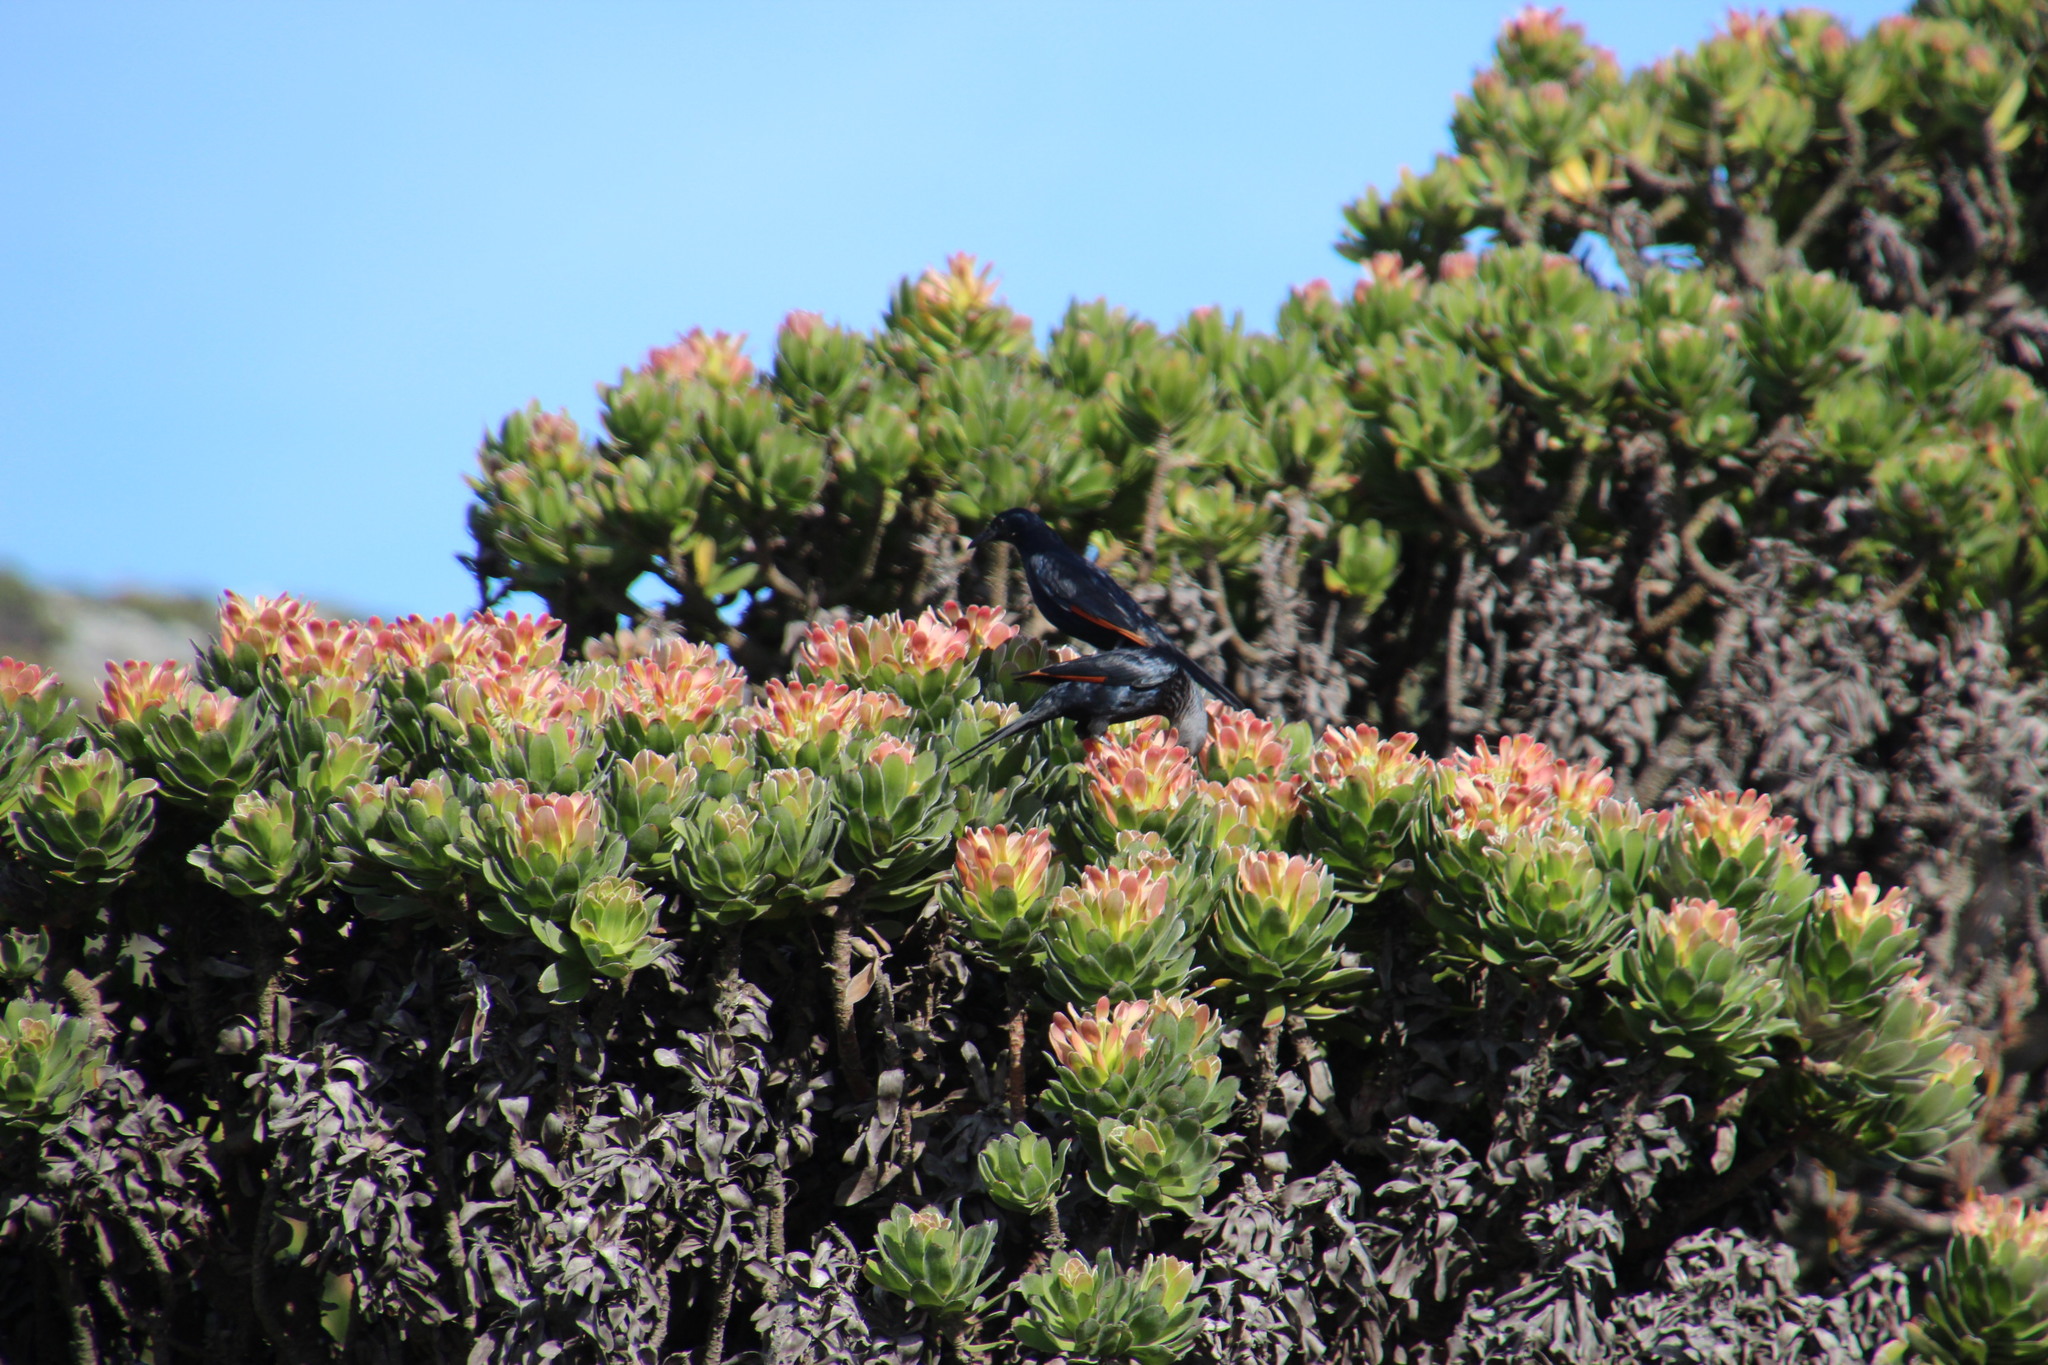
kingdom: Plantae
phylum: Tracheophyta
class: Magnoliopsida
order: Proteales
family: Proteaceae
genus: Mimetes
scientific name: Mimetes fimbriifolius
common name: Fringed bottlebrush
